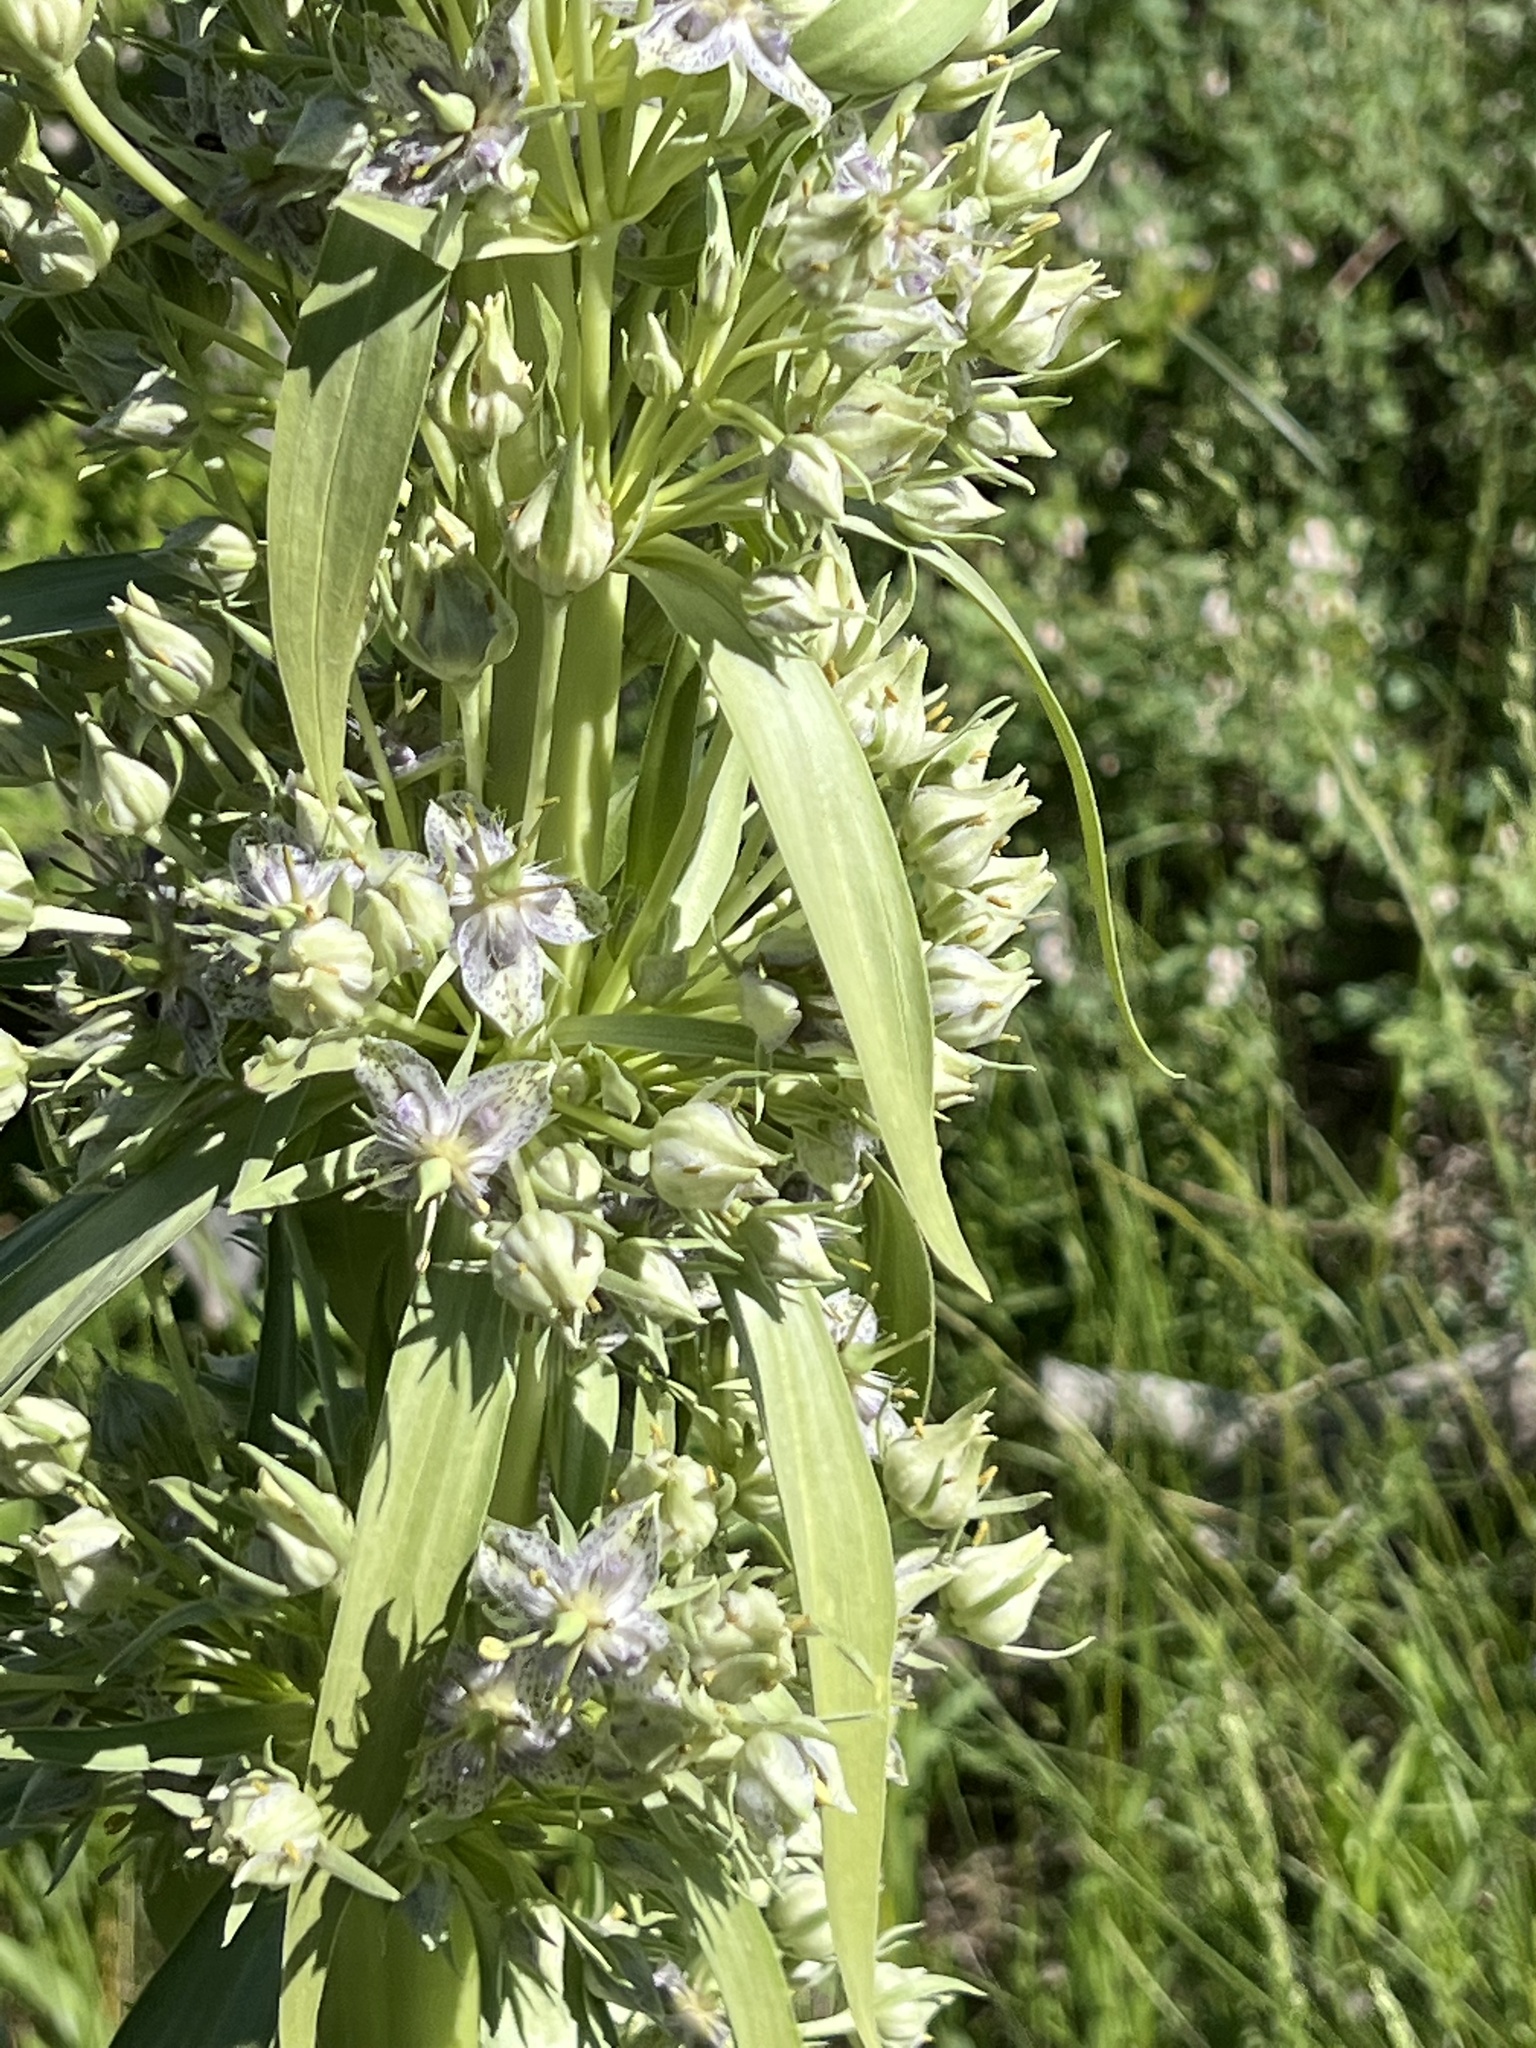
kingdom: Plantae
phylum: Tracheophyta
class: Magnoliopsida
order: Gentianales
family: Gentianaceae
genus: Frasera
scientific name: Frasera speciosa
